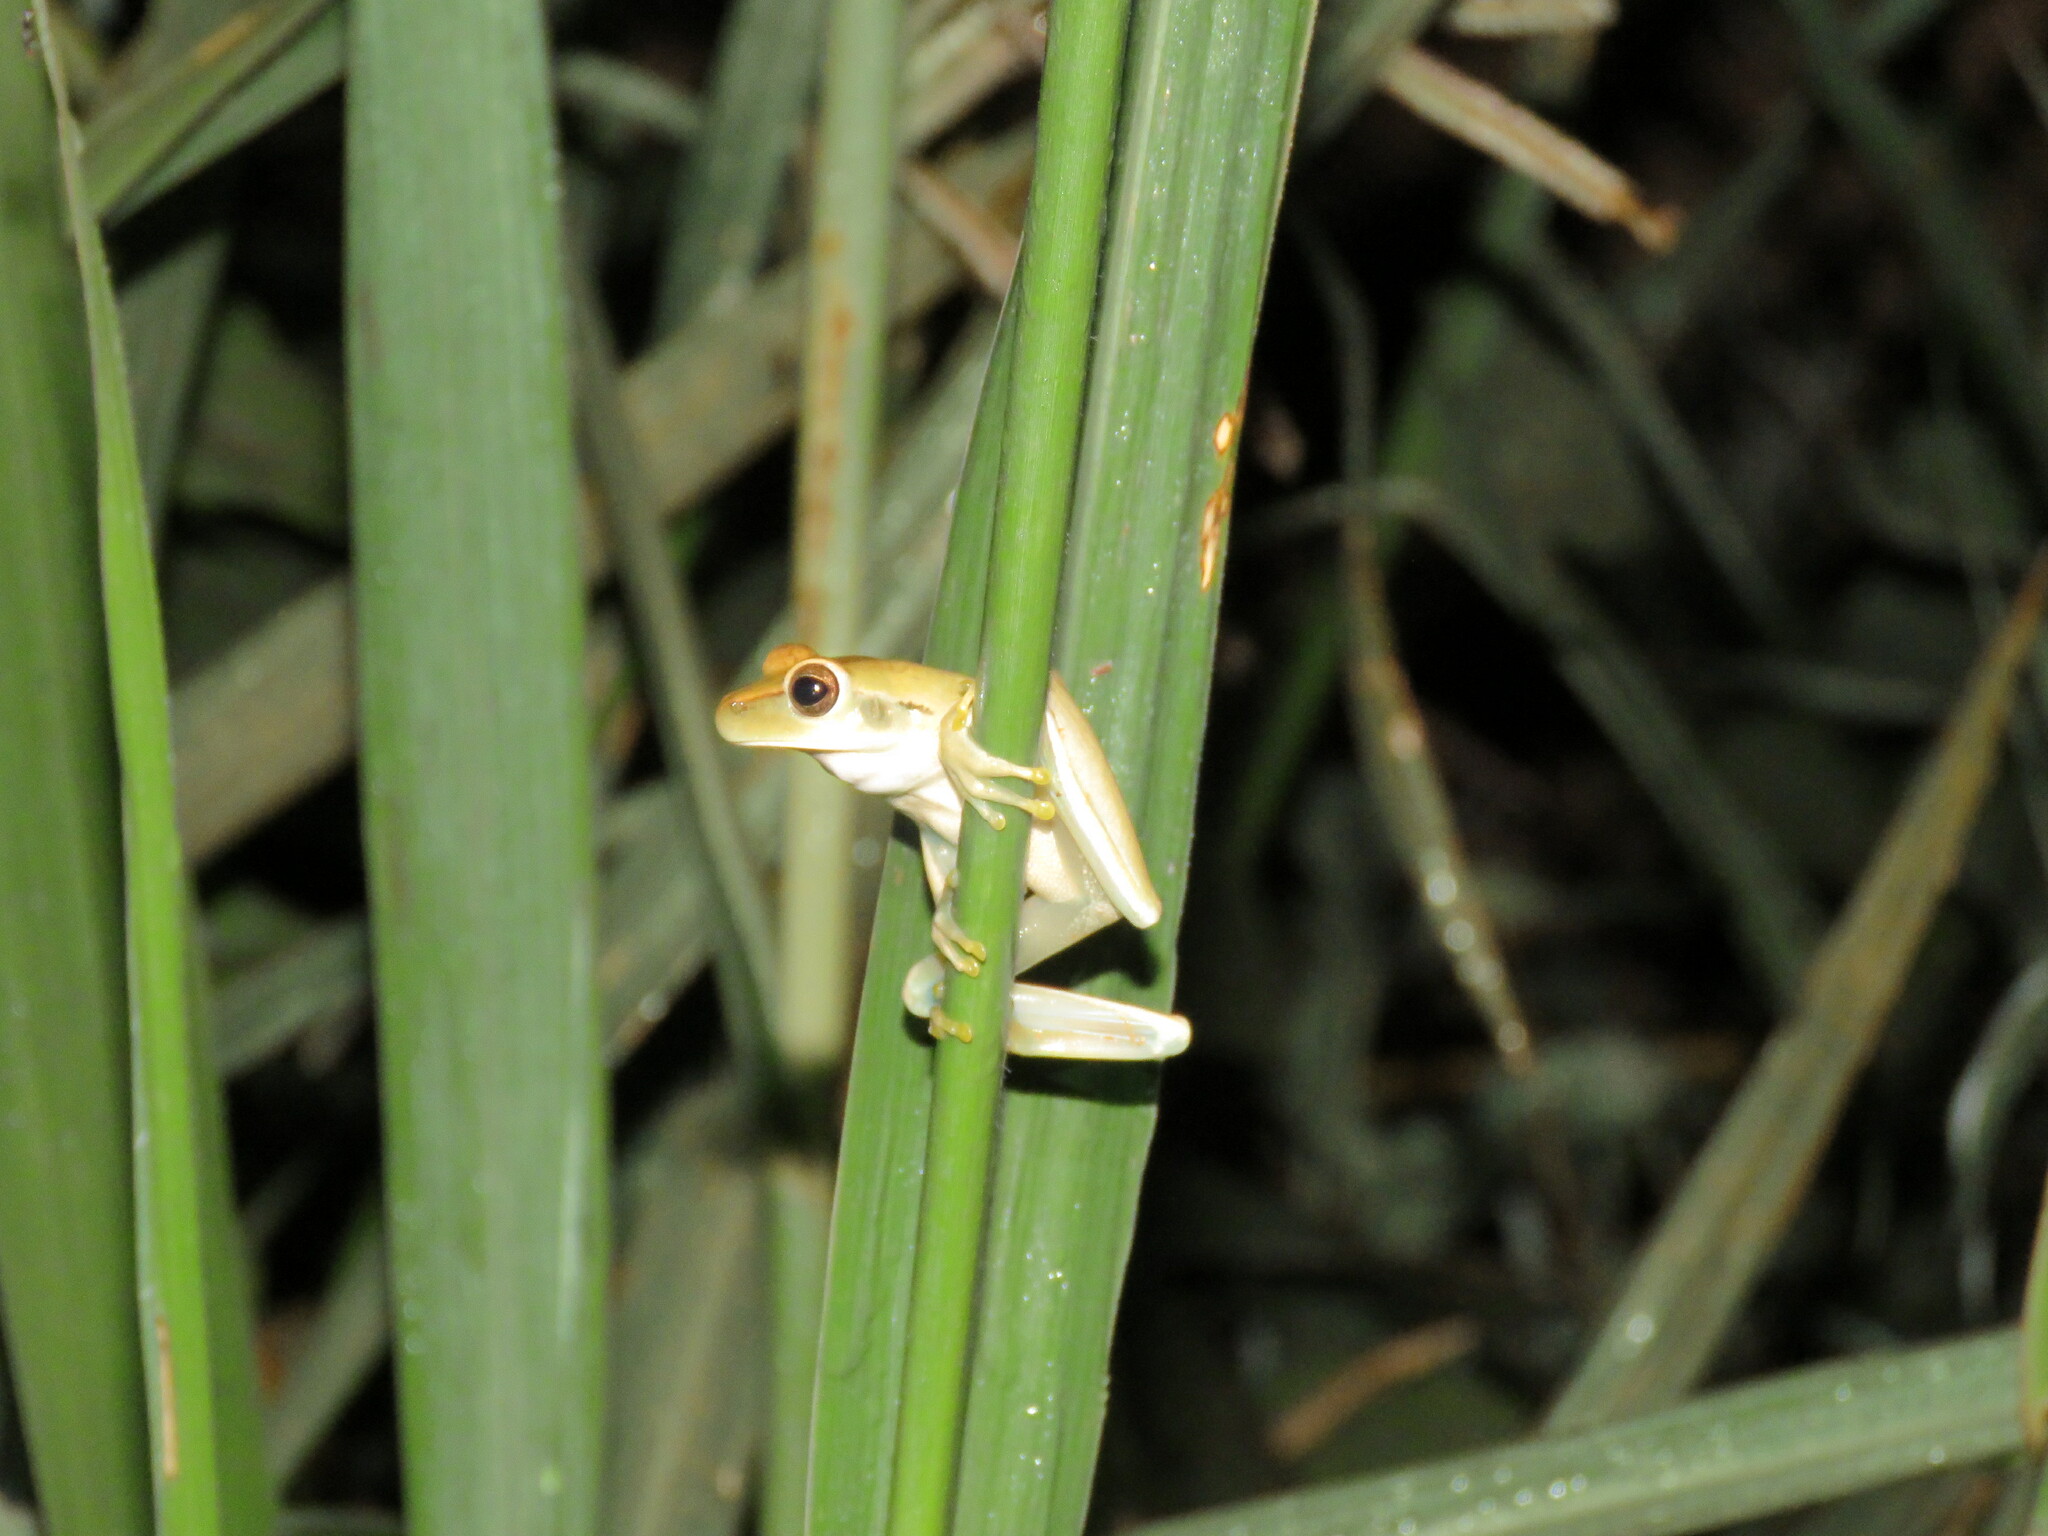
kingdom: Animalia
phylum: Chordata
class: Amphibia
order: Anura
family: Hylidae
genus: Boana
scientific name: Boana raniceps
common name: Chaco treefrog
